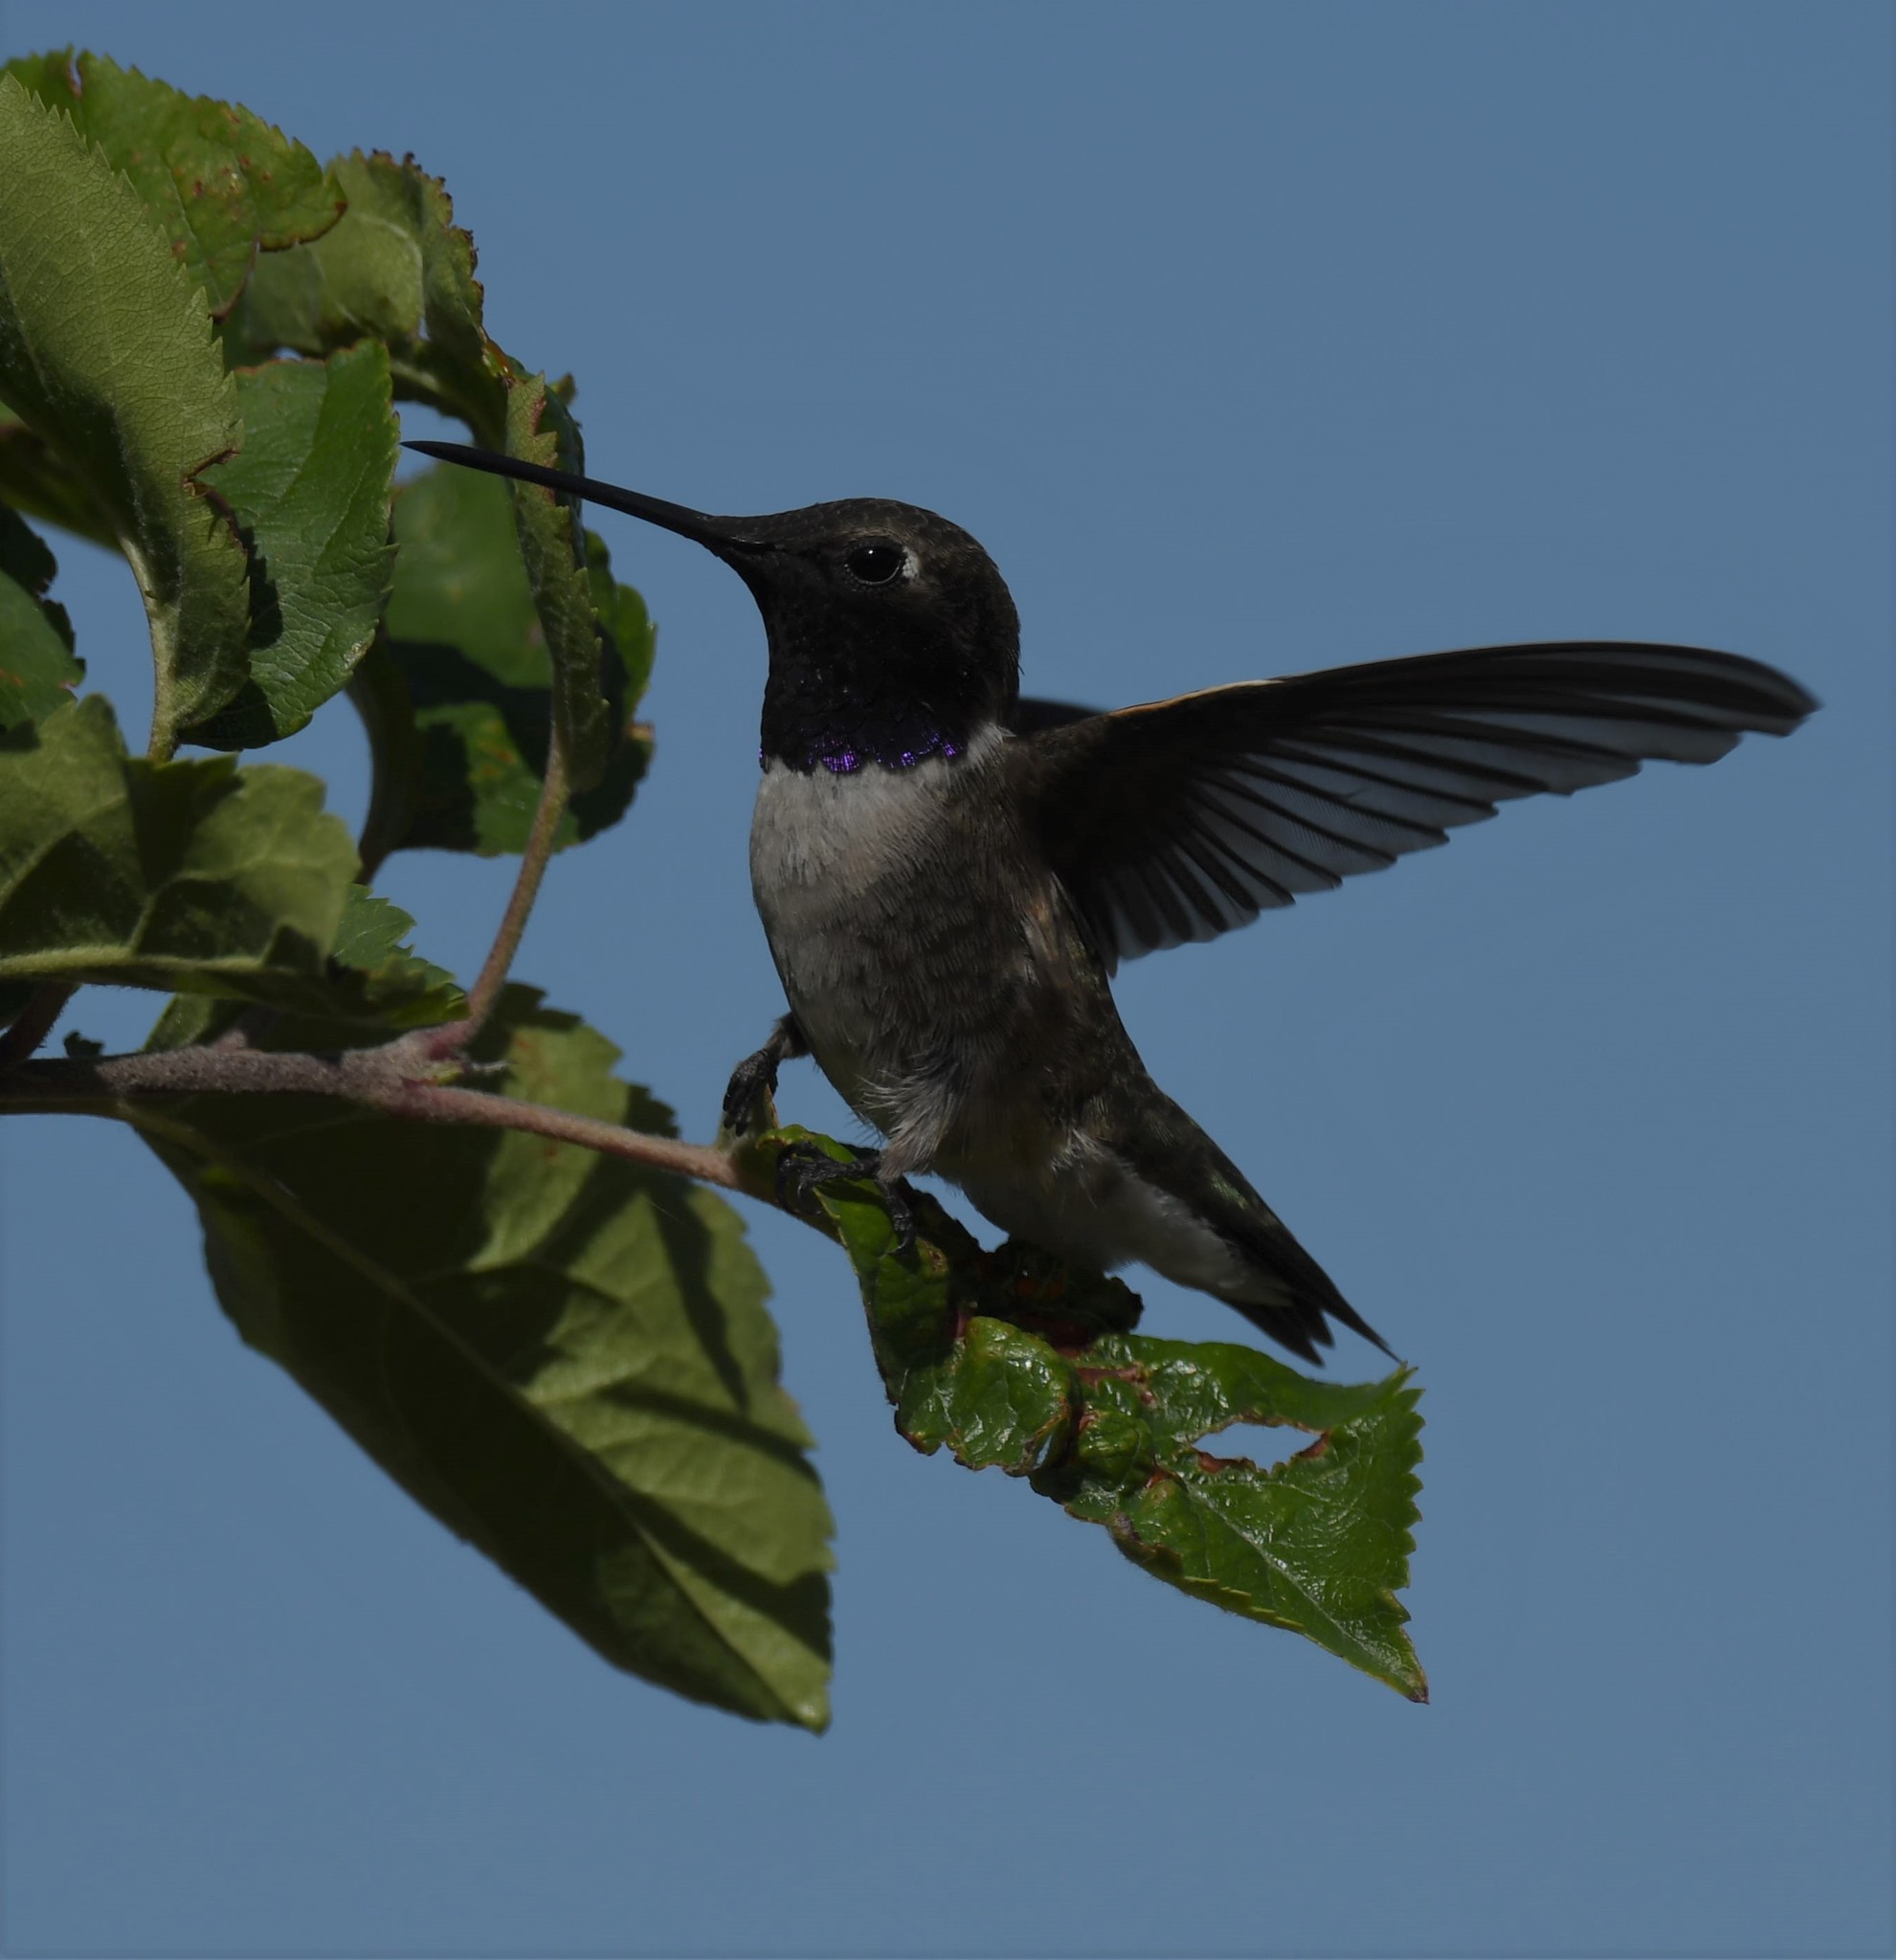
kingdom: Animalia
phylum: Chordata
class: Aves
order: Apodiformes
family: Trochilidae
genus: Archilochus
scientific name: Archilochus alexandri
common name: Black-chinned hummingbird
